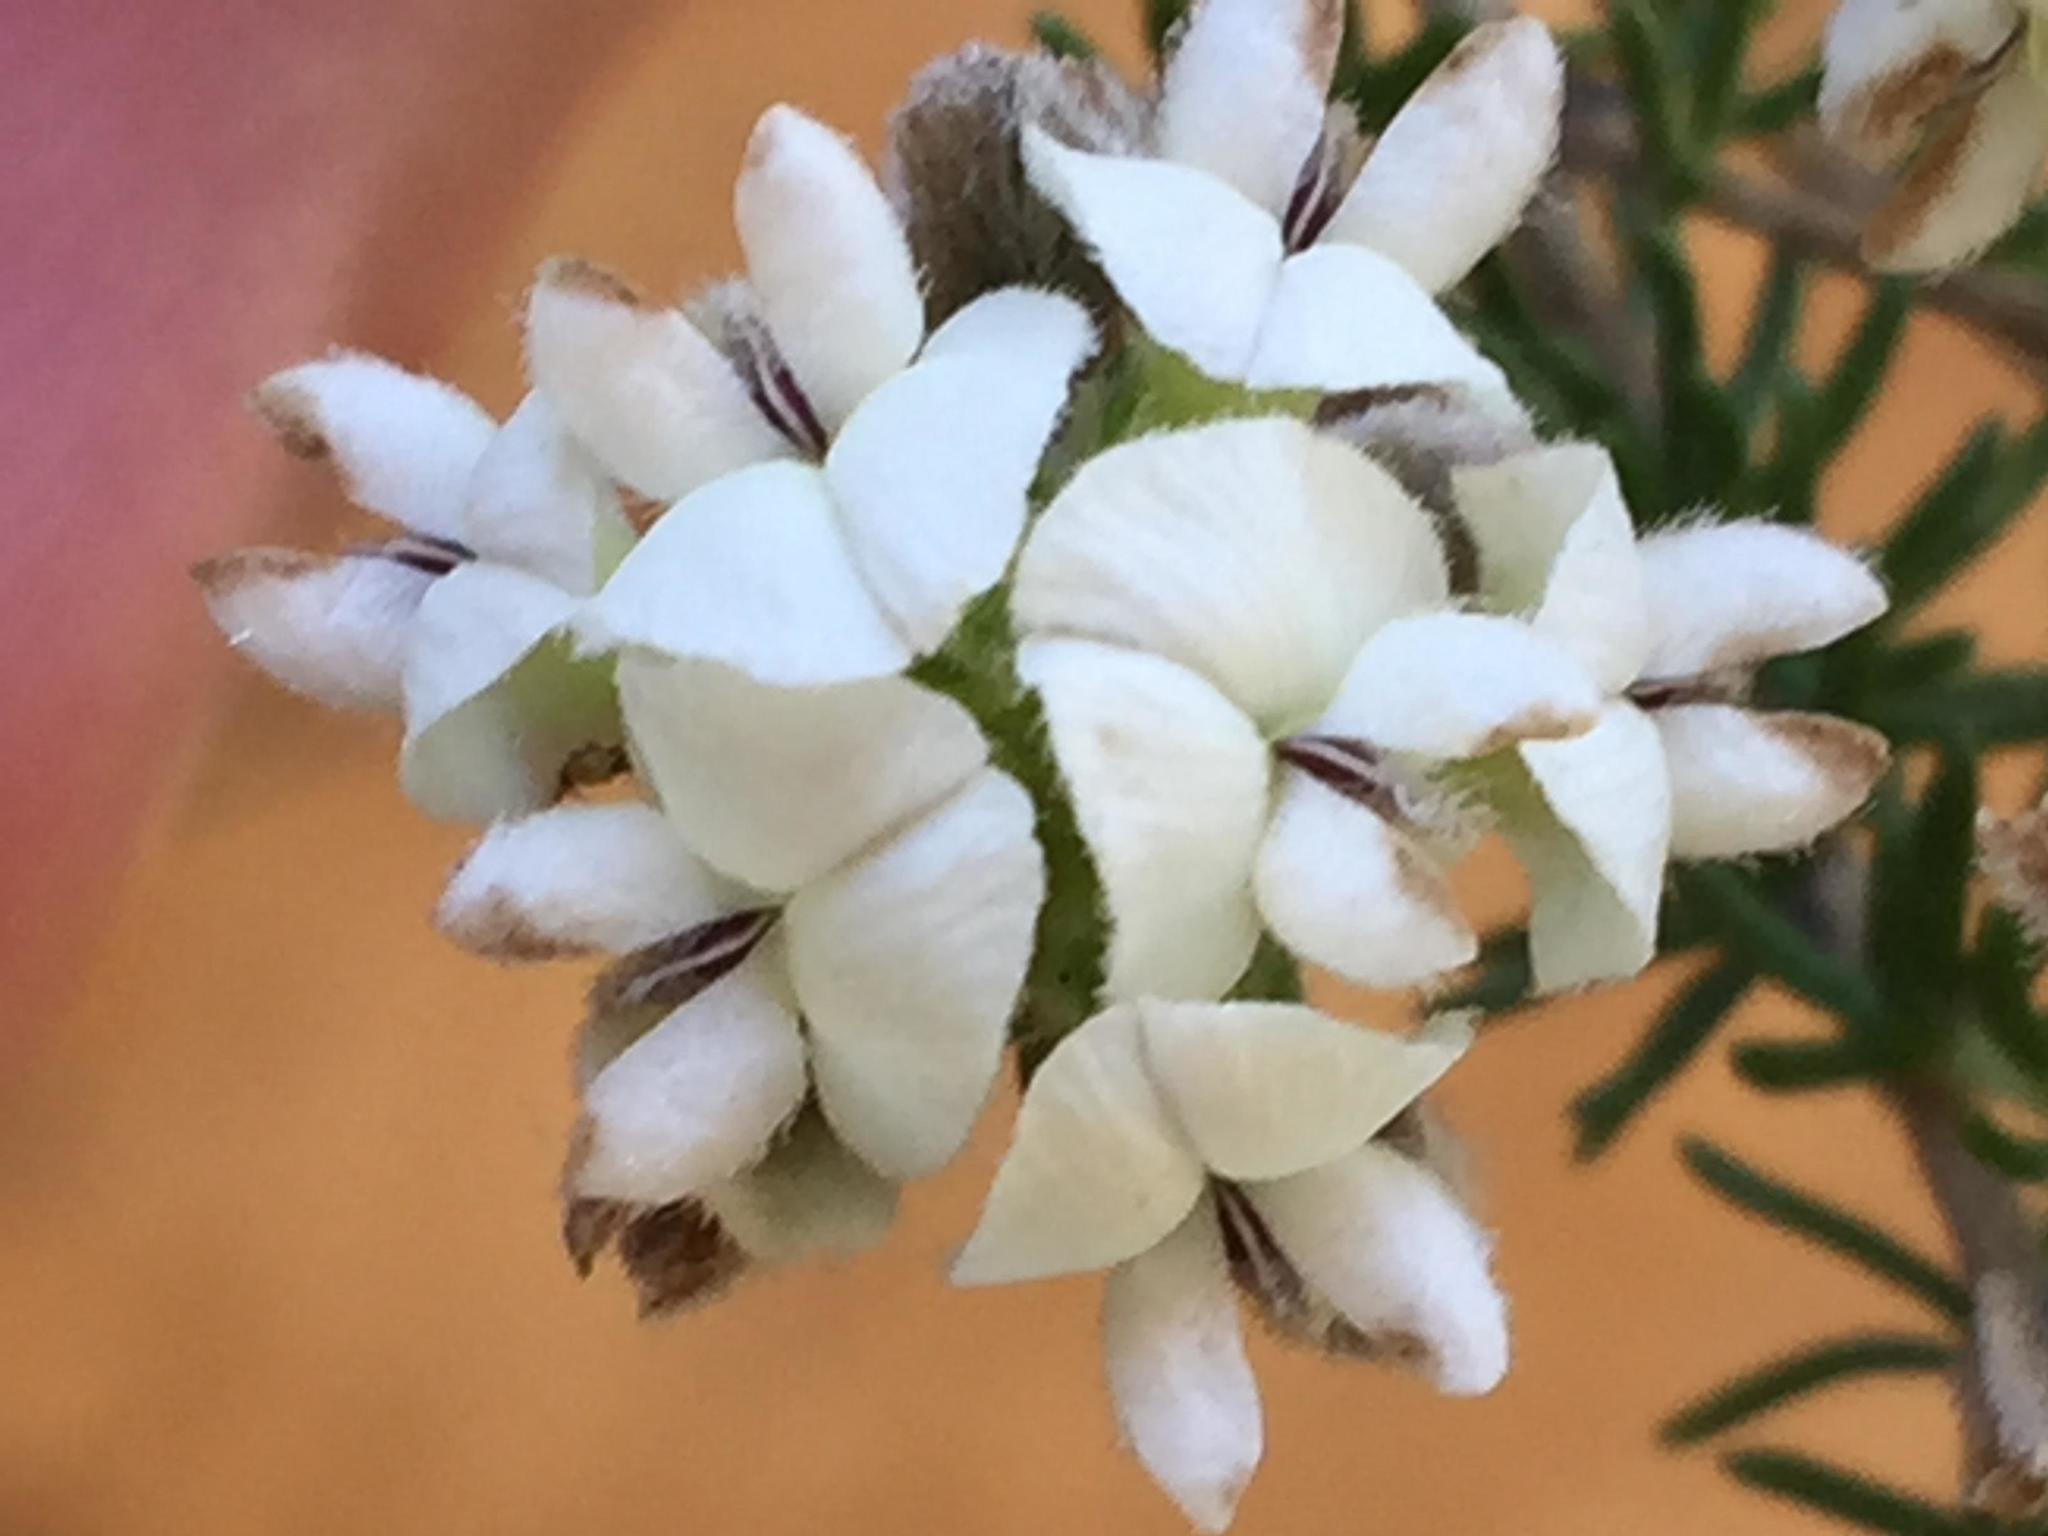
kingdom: Plantae
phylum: Tracheophyta
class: Magnoliopsida
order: Fabales
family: Fabaceae
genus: Aspalathus
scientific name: Aspalathus nigra
